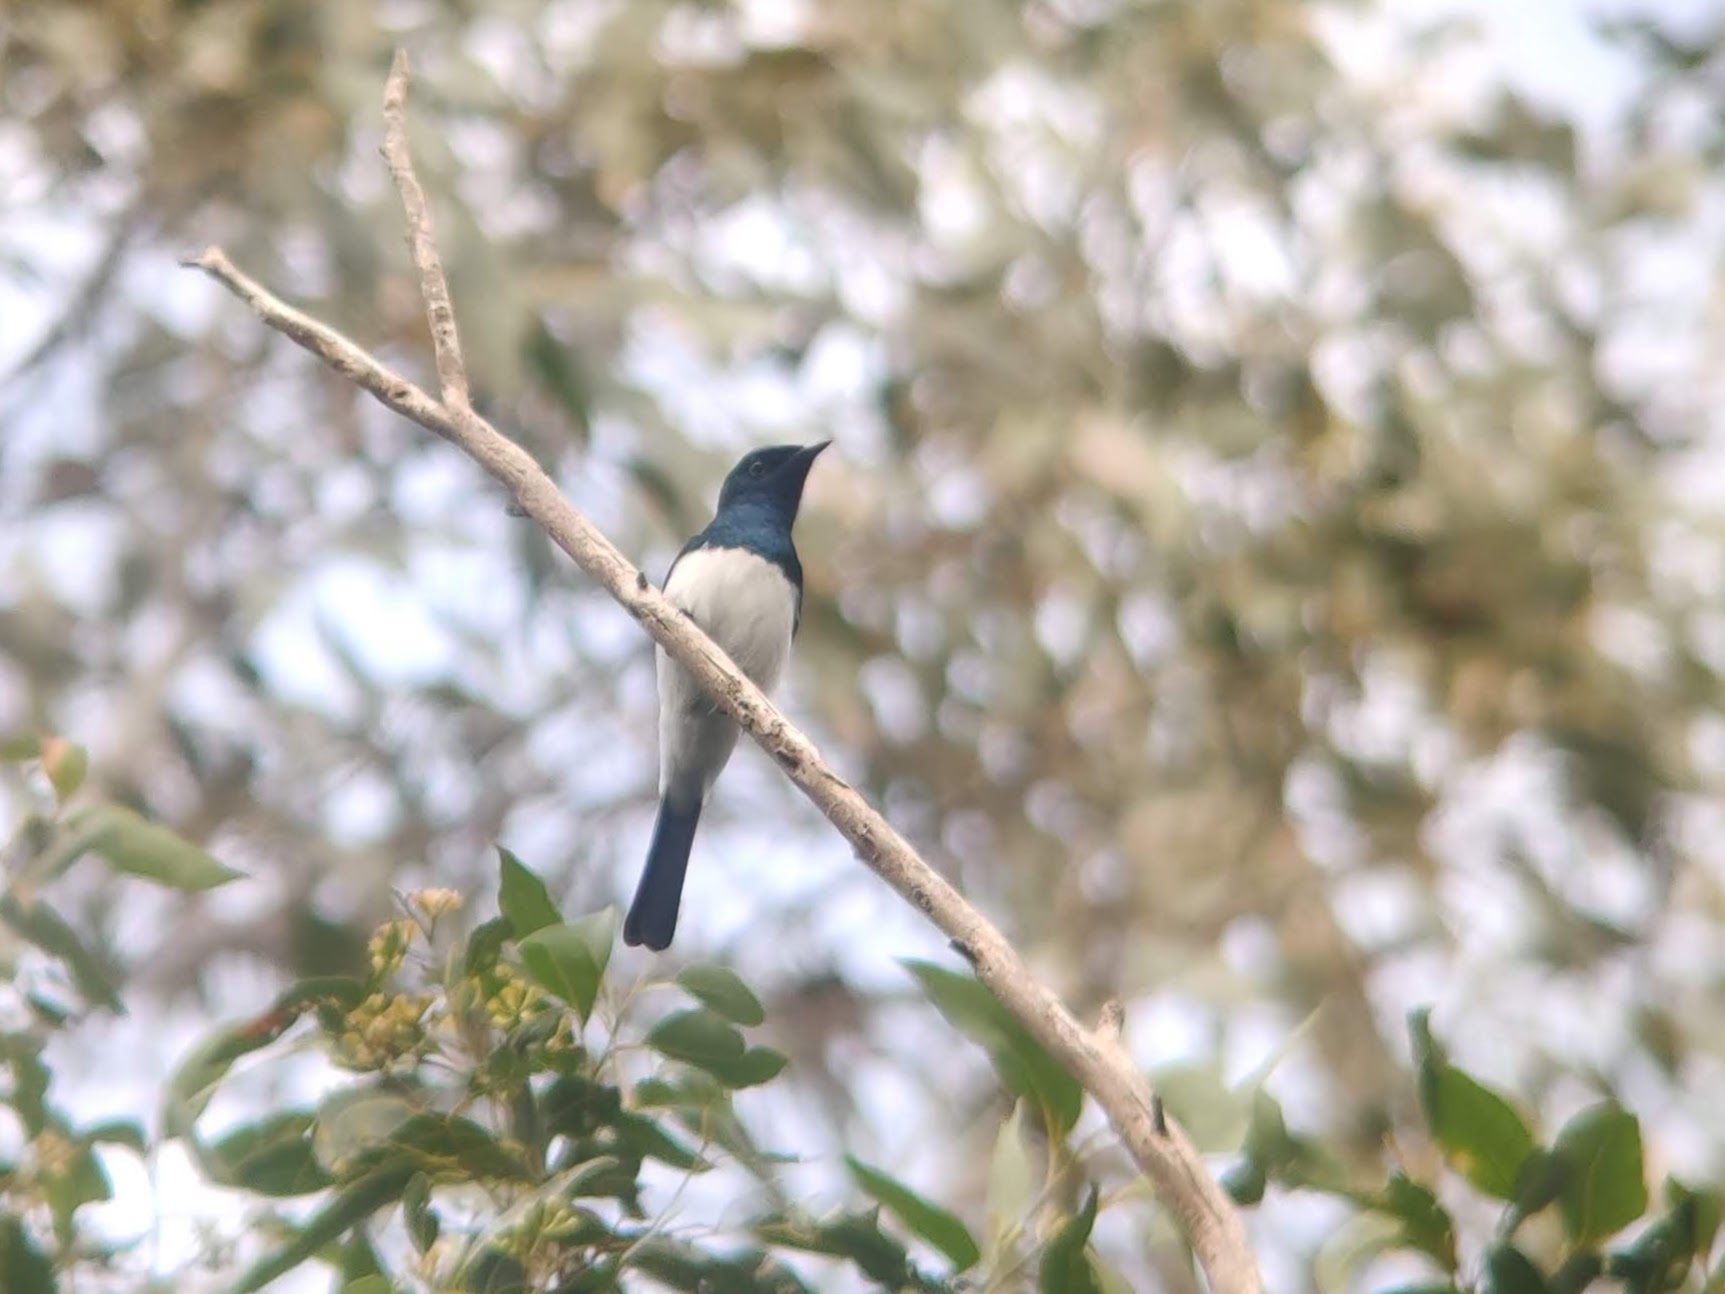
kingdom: Animalia
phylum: Chordata
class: Aves
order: Passeriformes
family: Monarchidae
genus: Myiagra
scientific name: Myiagra cyanoleuca
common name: Satin flycatcher
